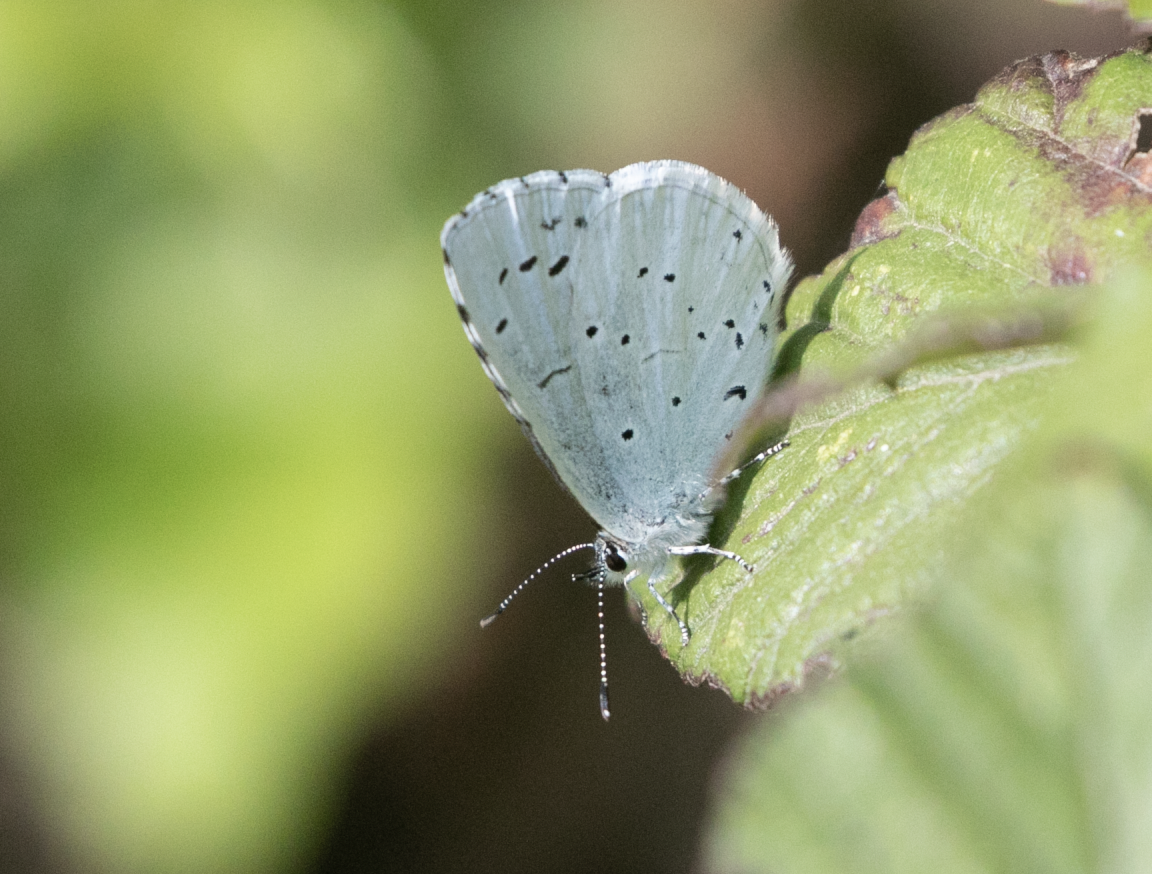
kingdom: Animalia
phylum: Arthropoda
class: Insecta
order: Lepidoptera
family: Lycaenidae
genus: Celastrina
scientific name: Celastrina argiolus
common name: Holly blue
